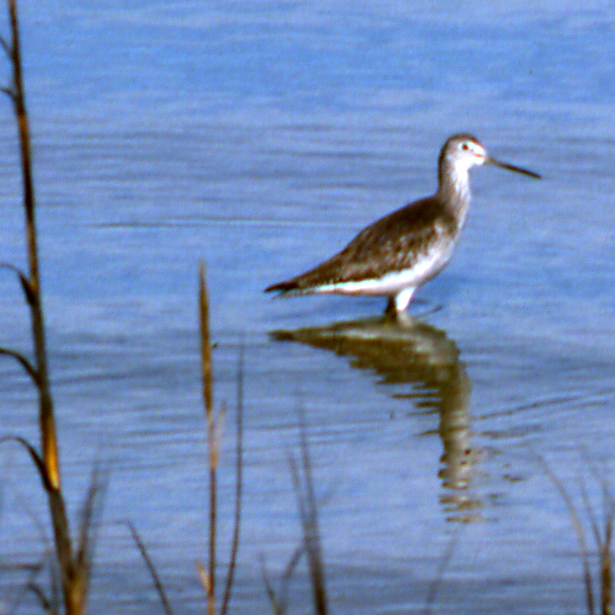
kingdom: Animalia
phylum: Chordata
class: Aves
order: Charadriiformes
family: Scolopacidae
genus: Tringa
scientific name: Tringa melanoleuca
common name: Greater yellowlegs
